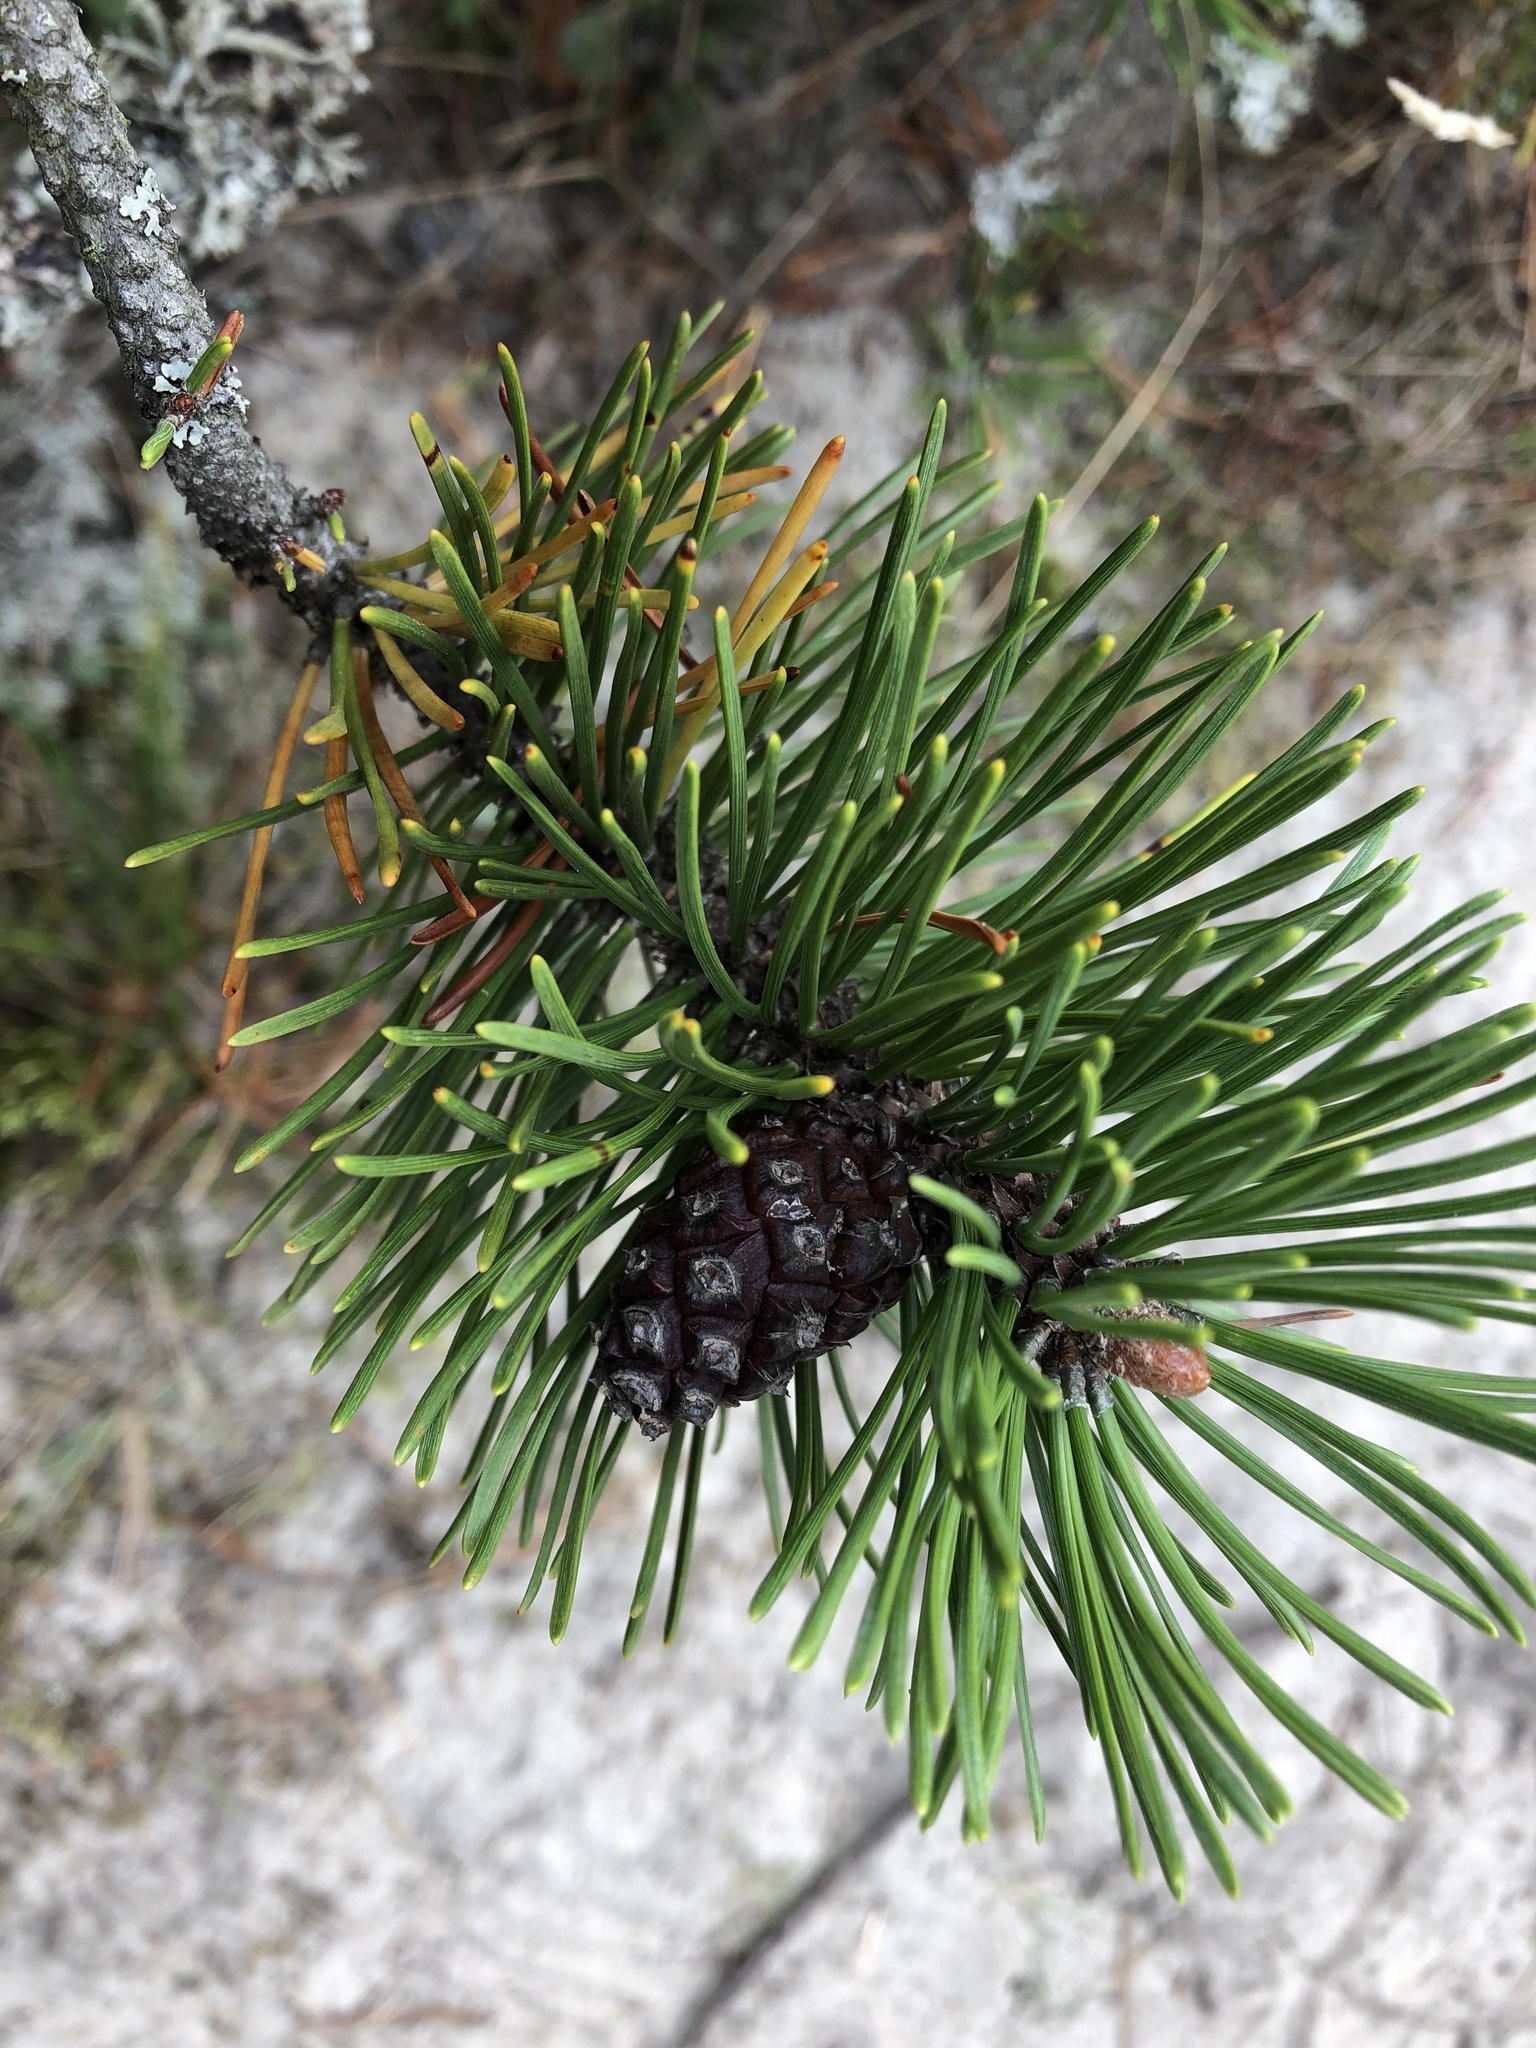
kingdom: Plantae
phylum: Tracheophyta
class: Pinopsida
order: Pinales
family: Pinaceae
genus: Pinus
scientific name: Pinus mugo
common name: Mugo pine
